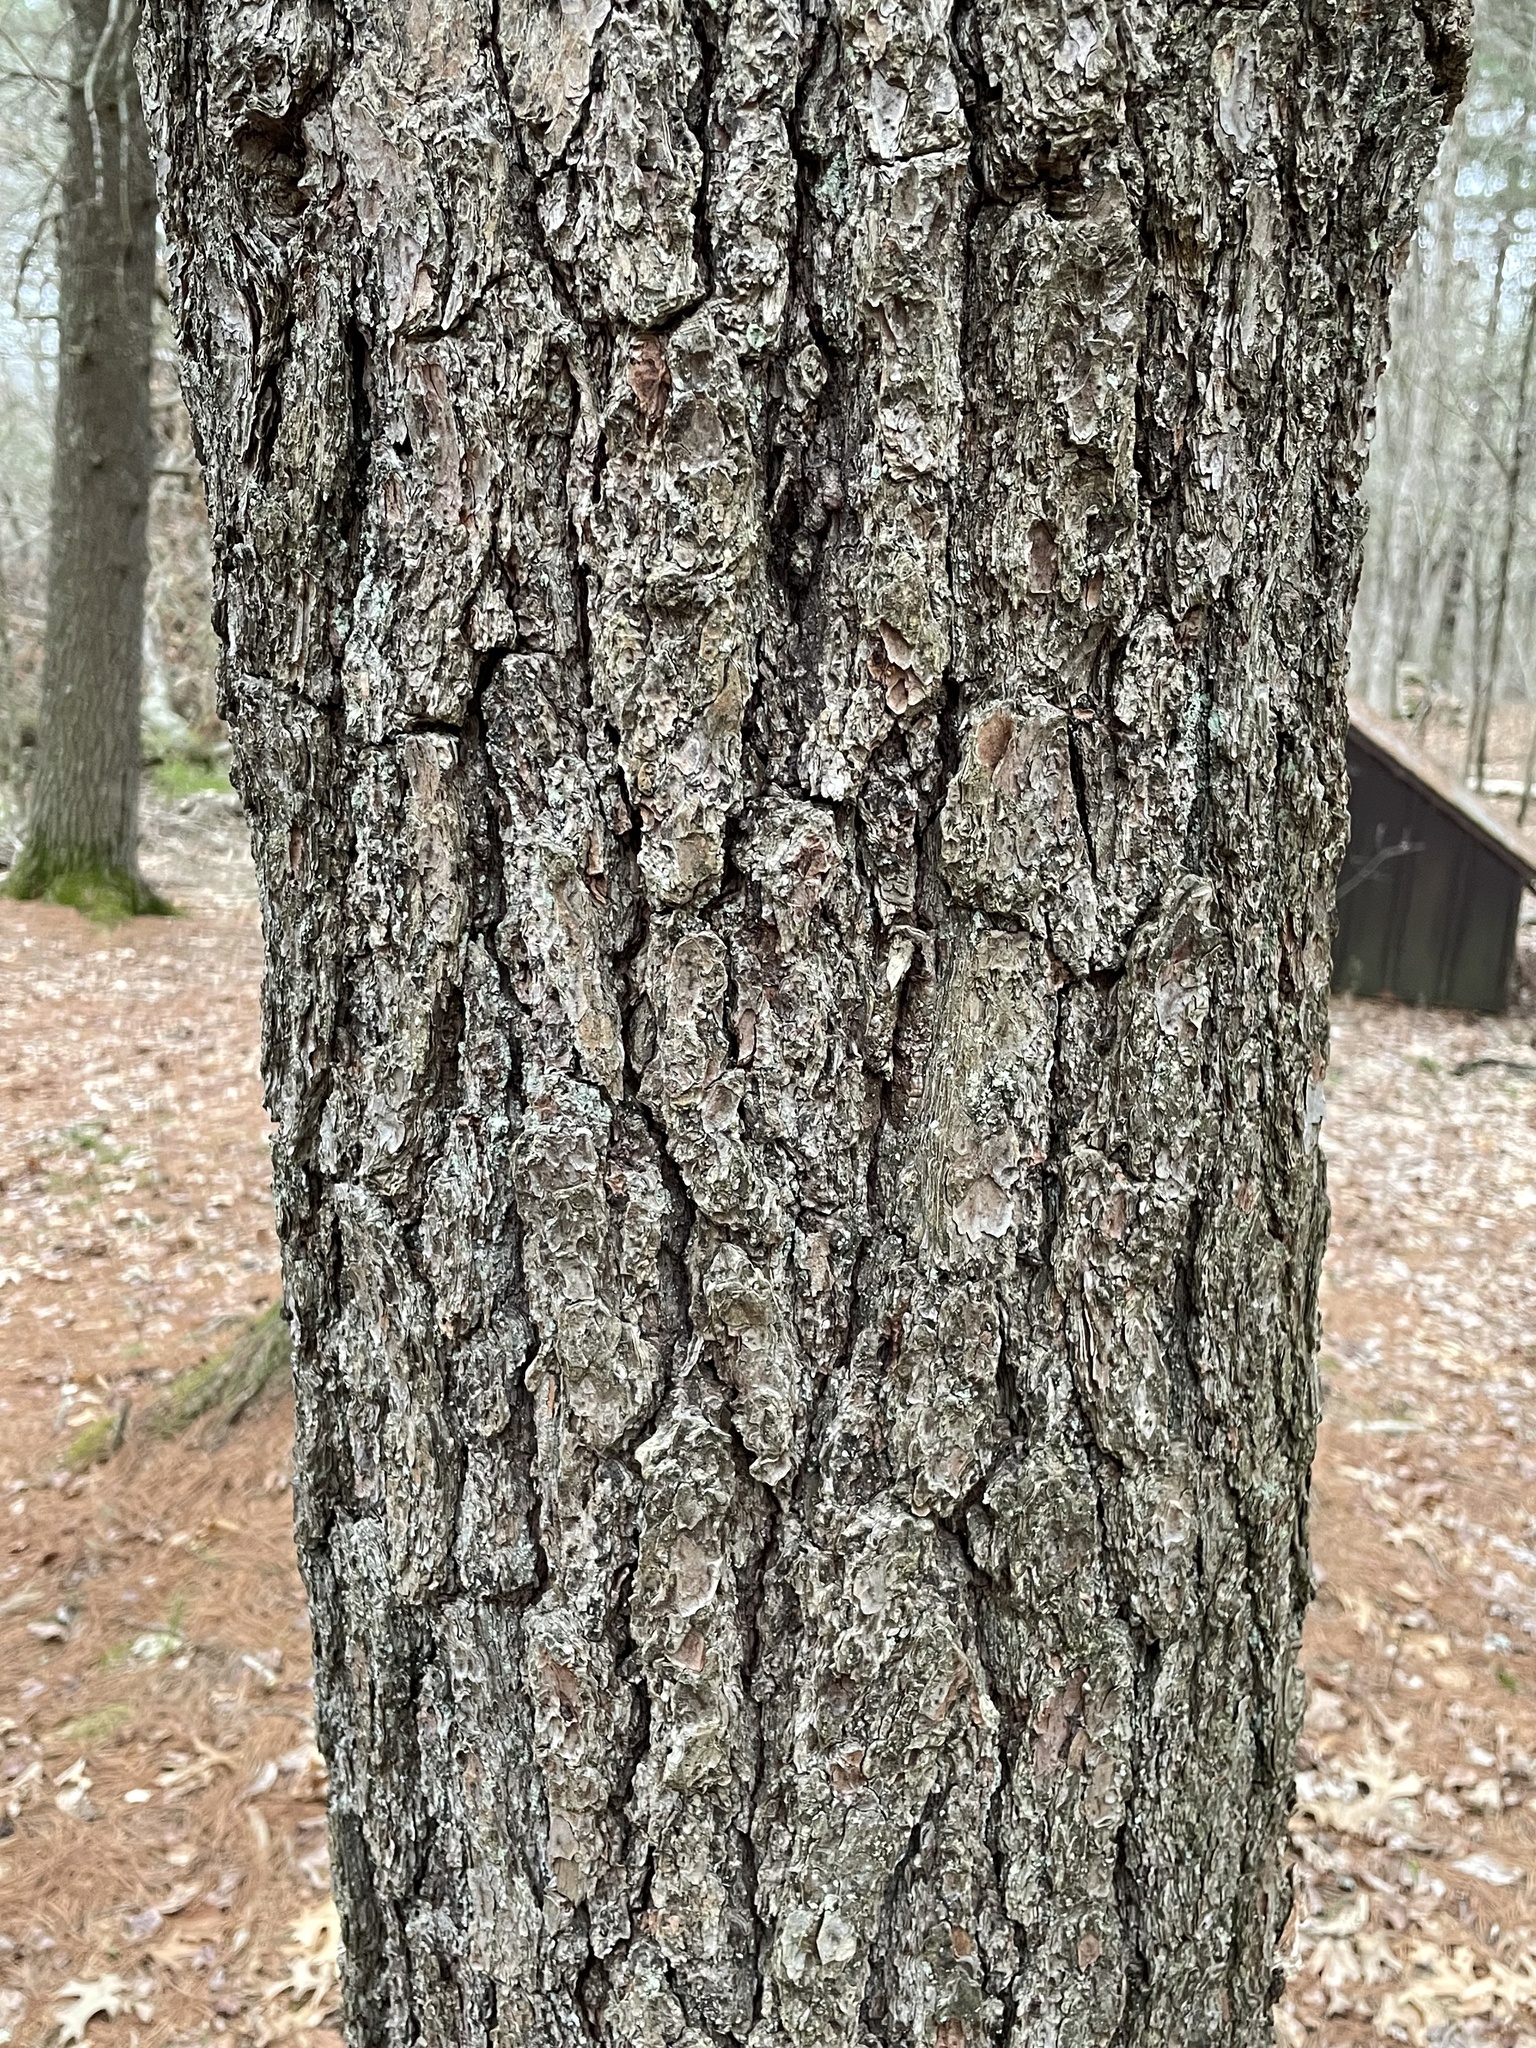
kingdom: Plantae
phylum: Tracheophyta
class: Pinopsida
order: Pinales
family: Pinaceae
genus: Pinus
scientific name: Pinus strobus
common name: Weymouth pine
